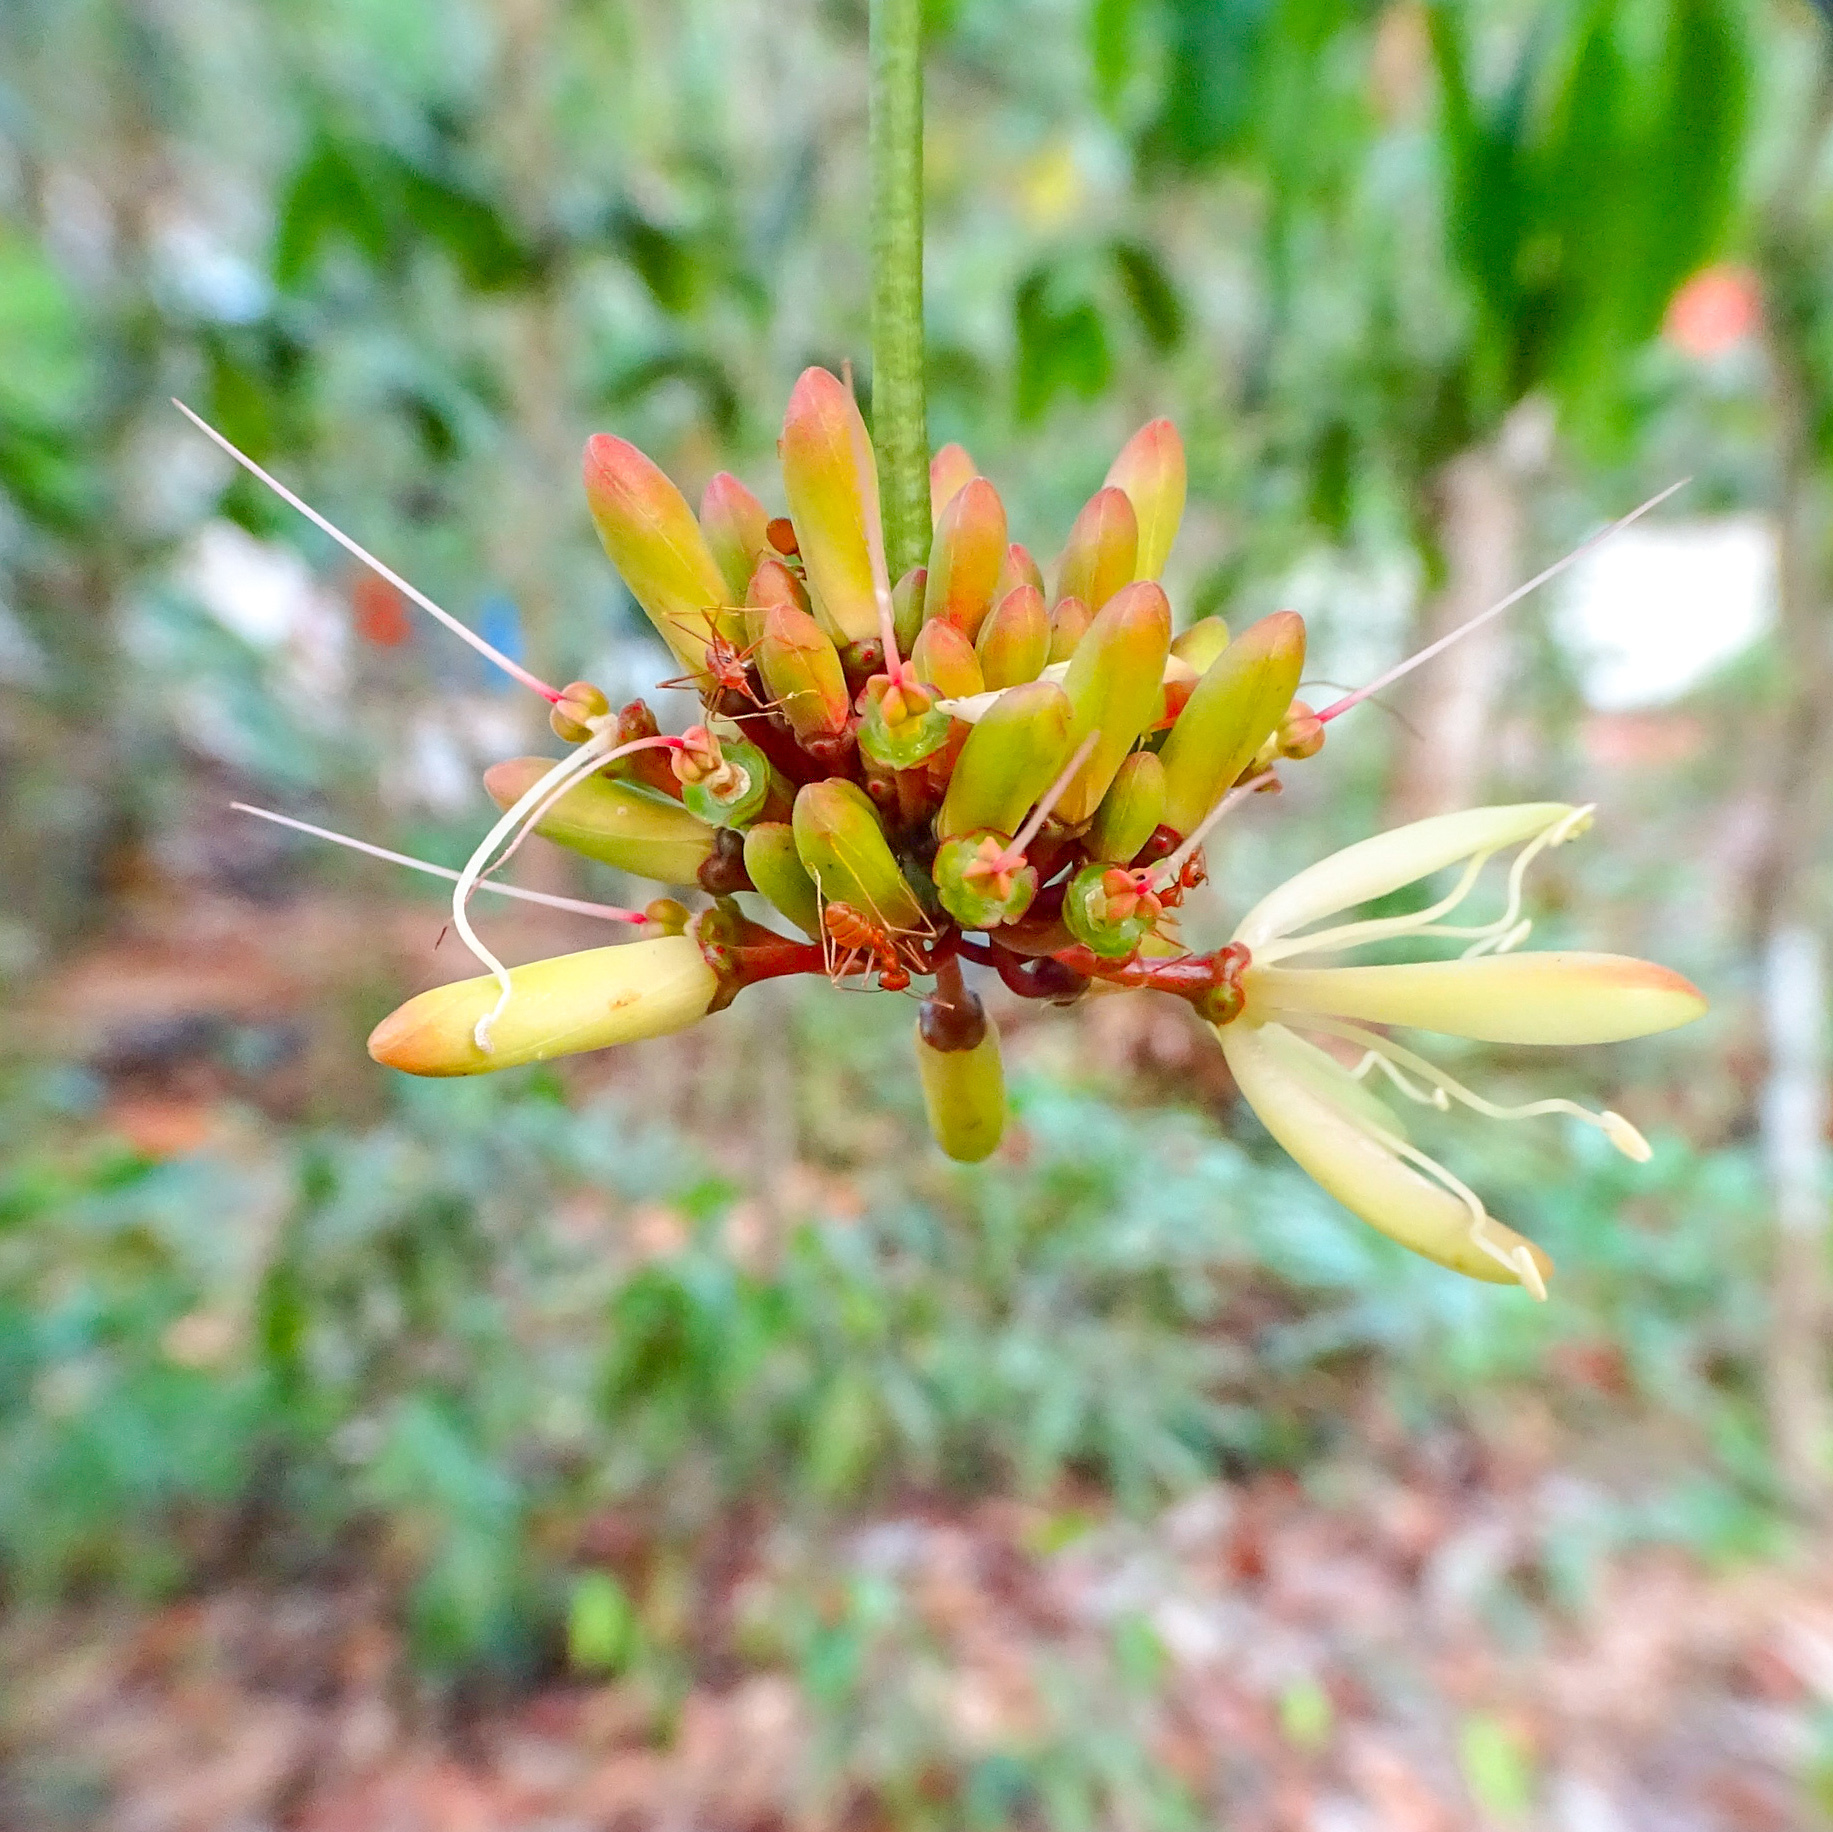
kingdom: Plantae
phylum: Tracheophyta
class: Magnoliopsida
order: Sapindales
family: Simaroubaceae
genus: Samadera
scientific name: Samadera indica
